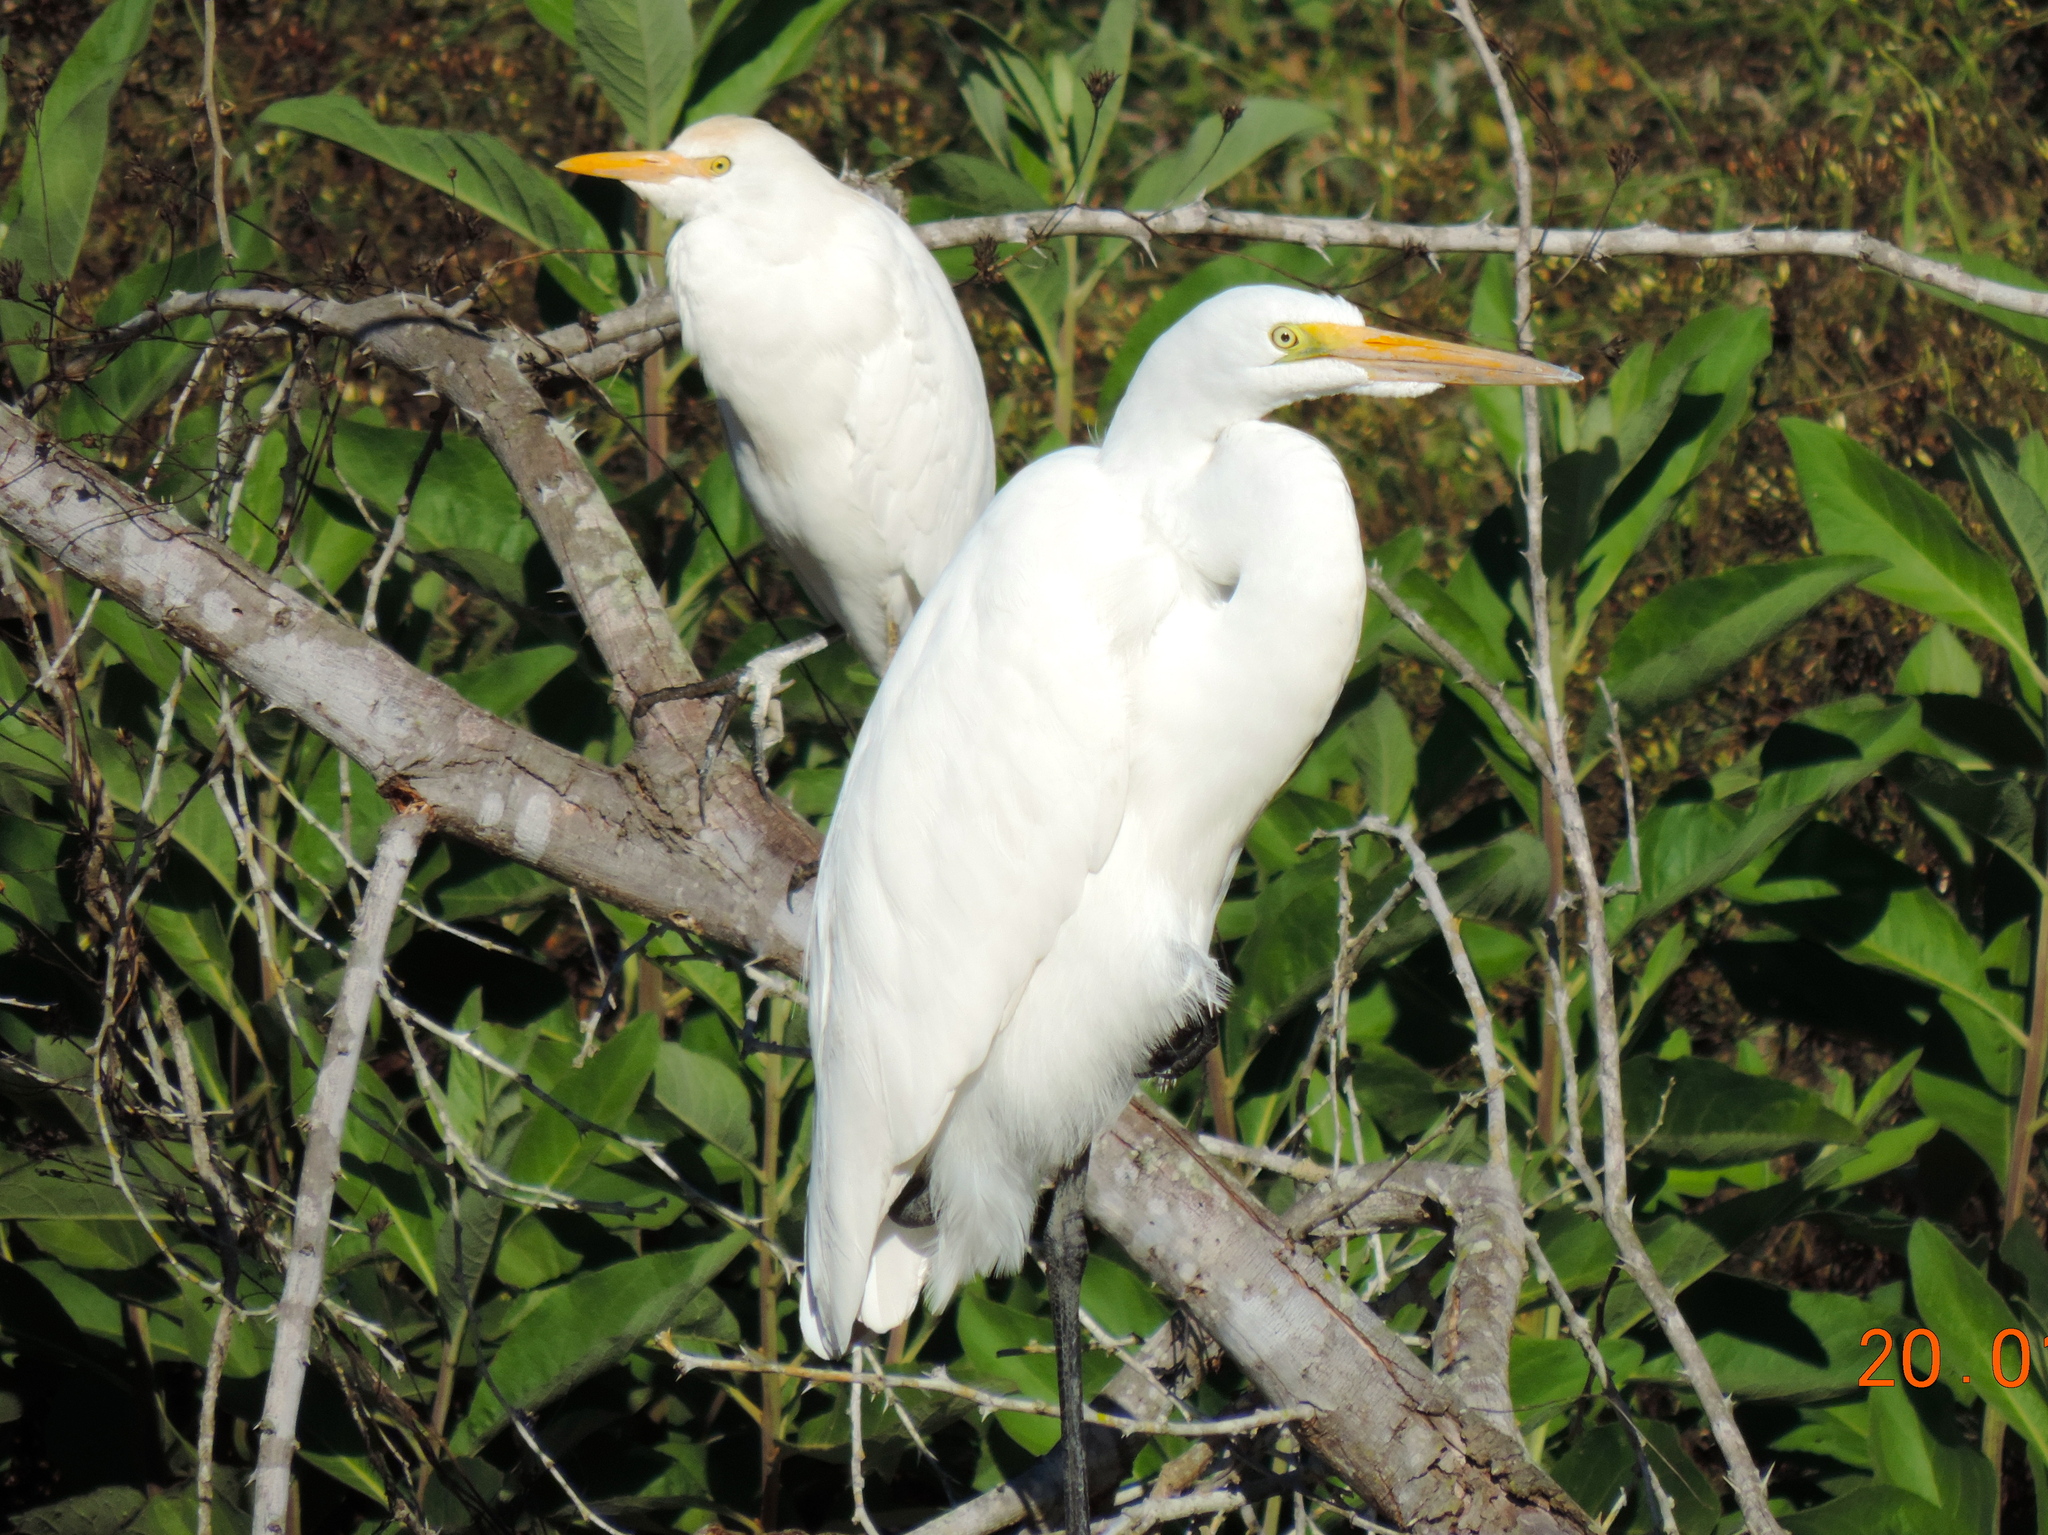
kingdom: Animalia
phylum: Chordata
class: Aves
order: Pelecaniformes
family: Ardeidae
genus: Ardea
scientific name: Ardea alba
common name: Great egret
